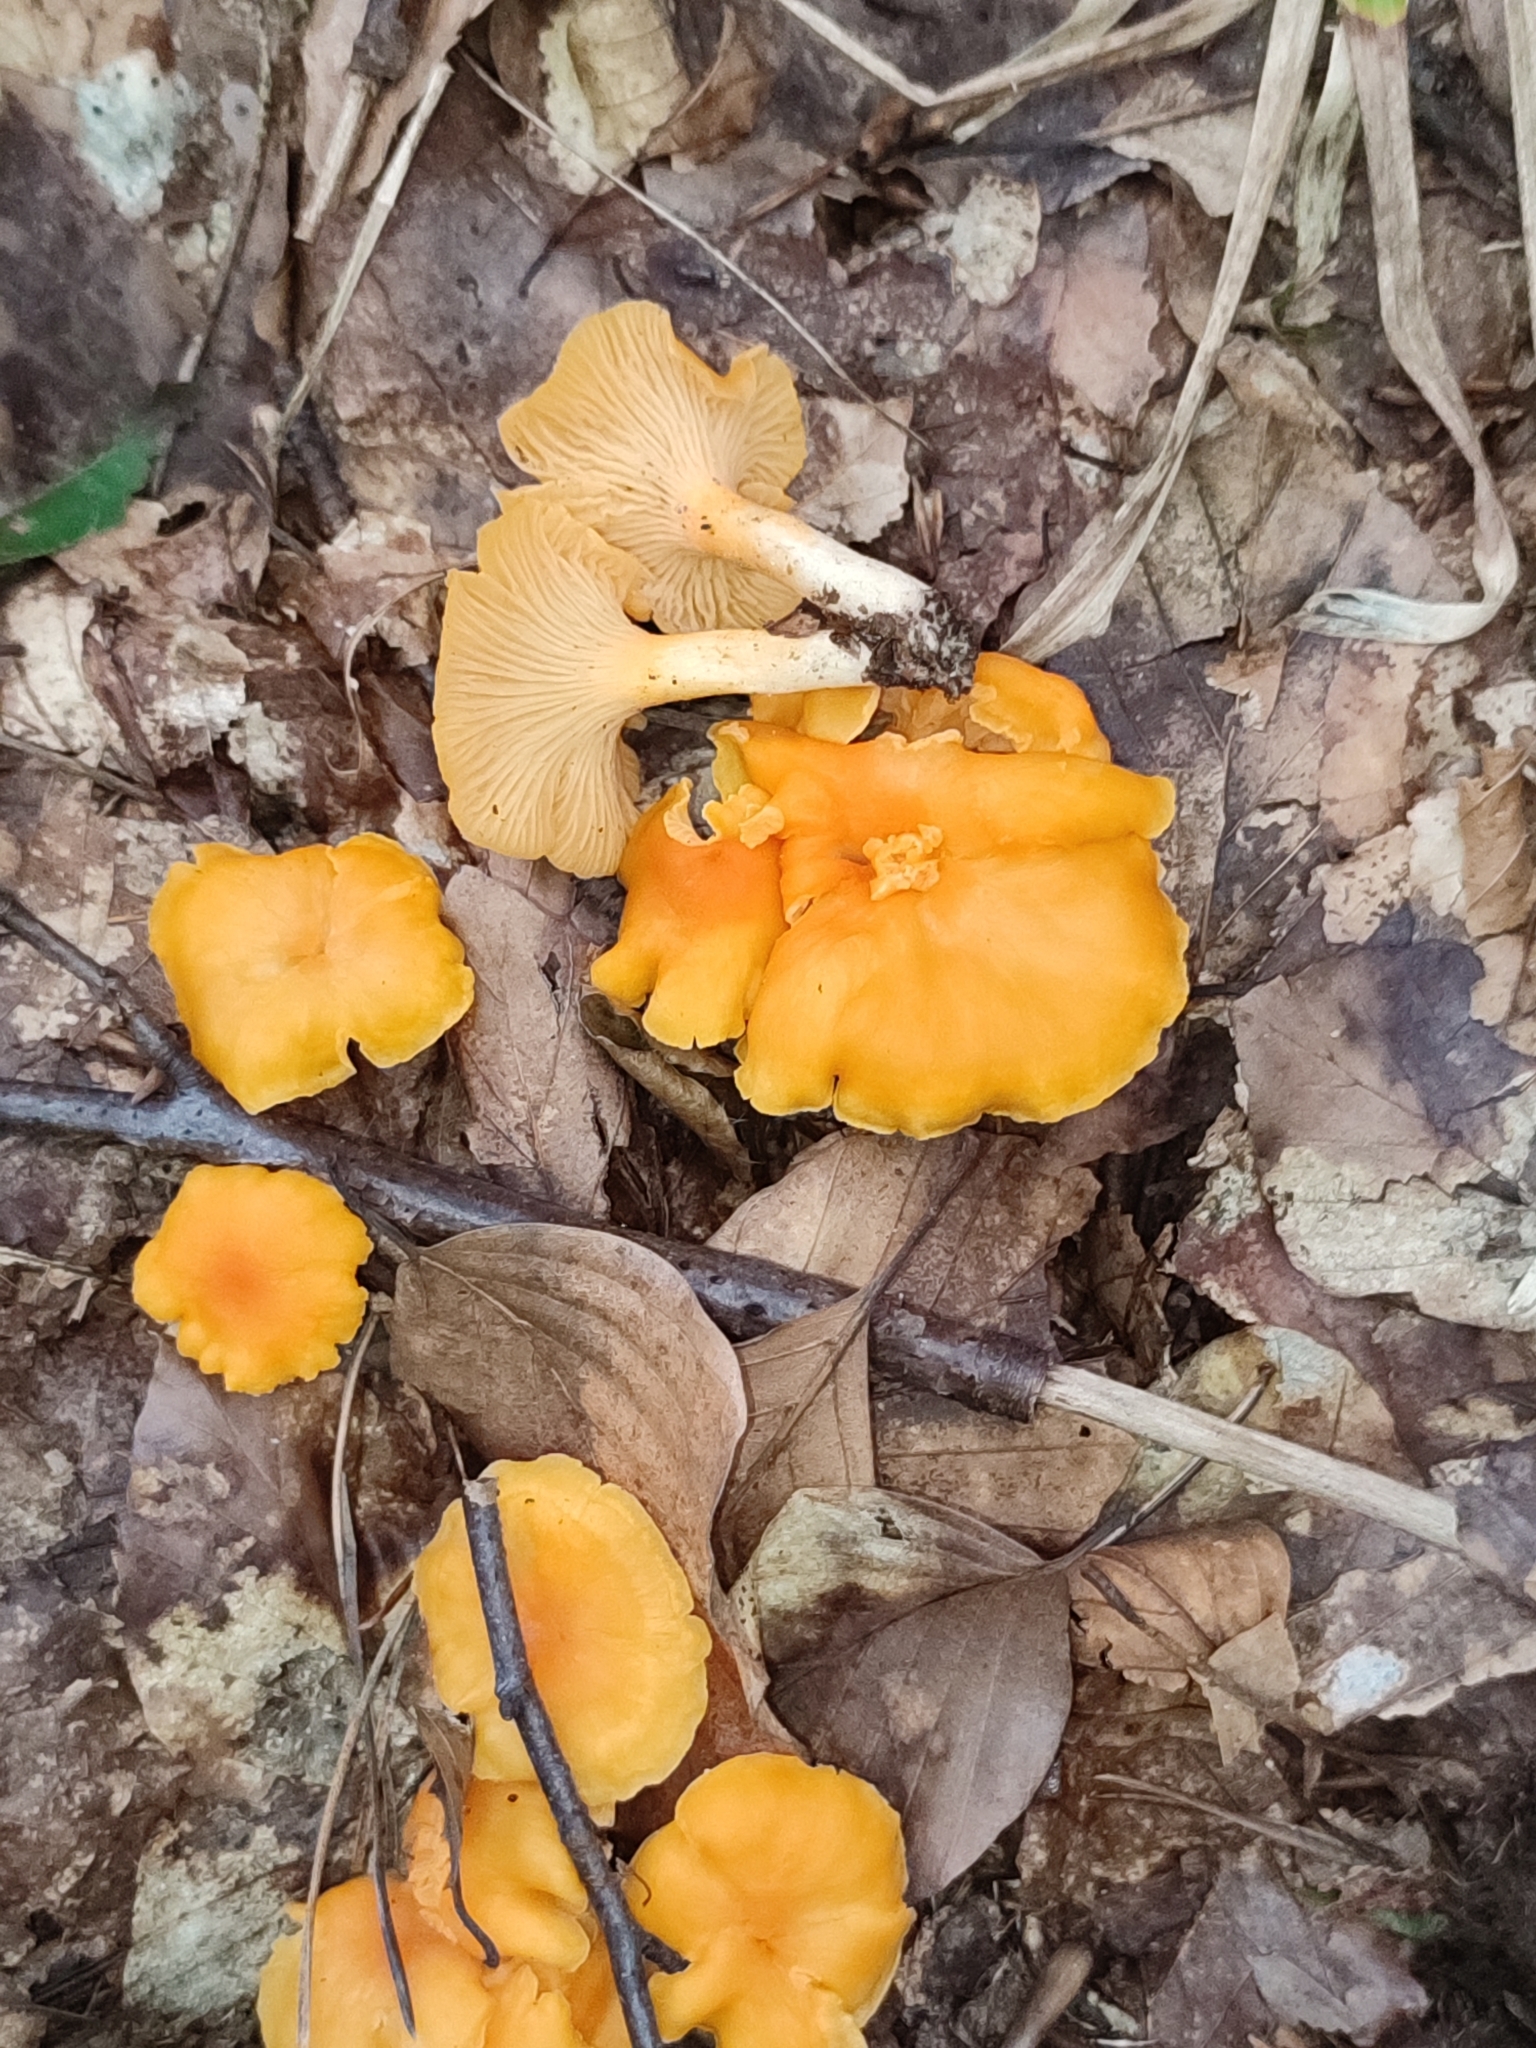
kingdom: Fungi
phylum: Basidiomycota
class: Agaricomycetes
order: Cantharellales
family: Hydnaceae
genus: Cantharellus
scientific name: Cantharellus friesii
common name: Orange chanterelle
